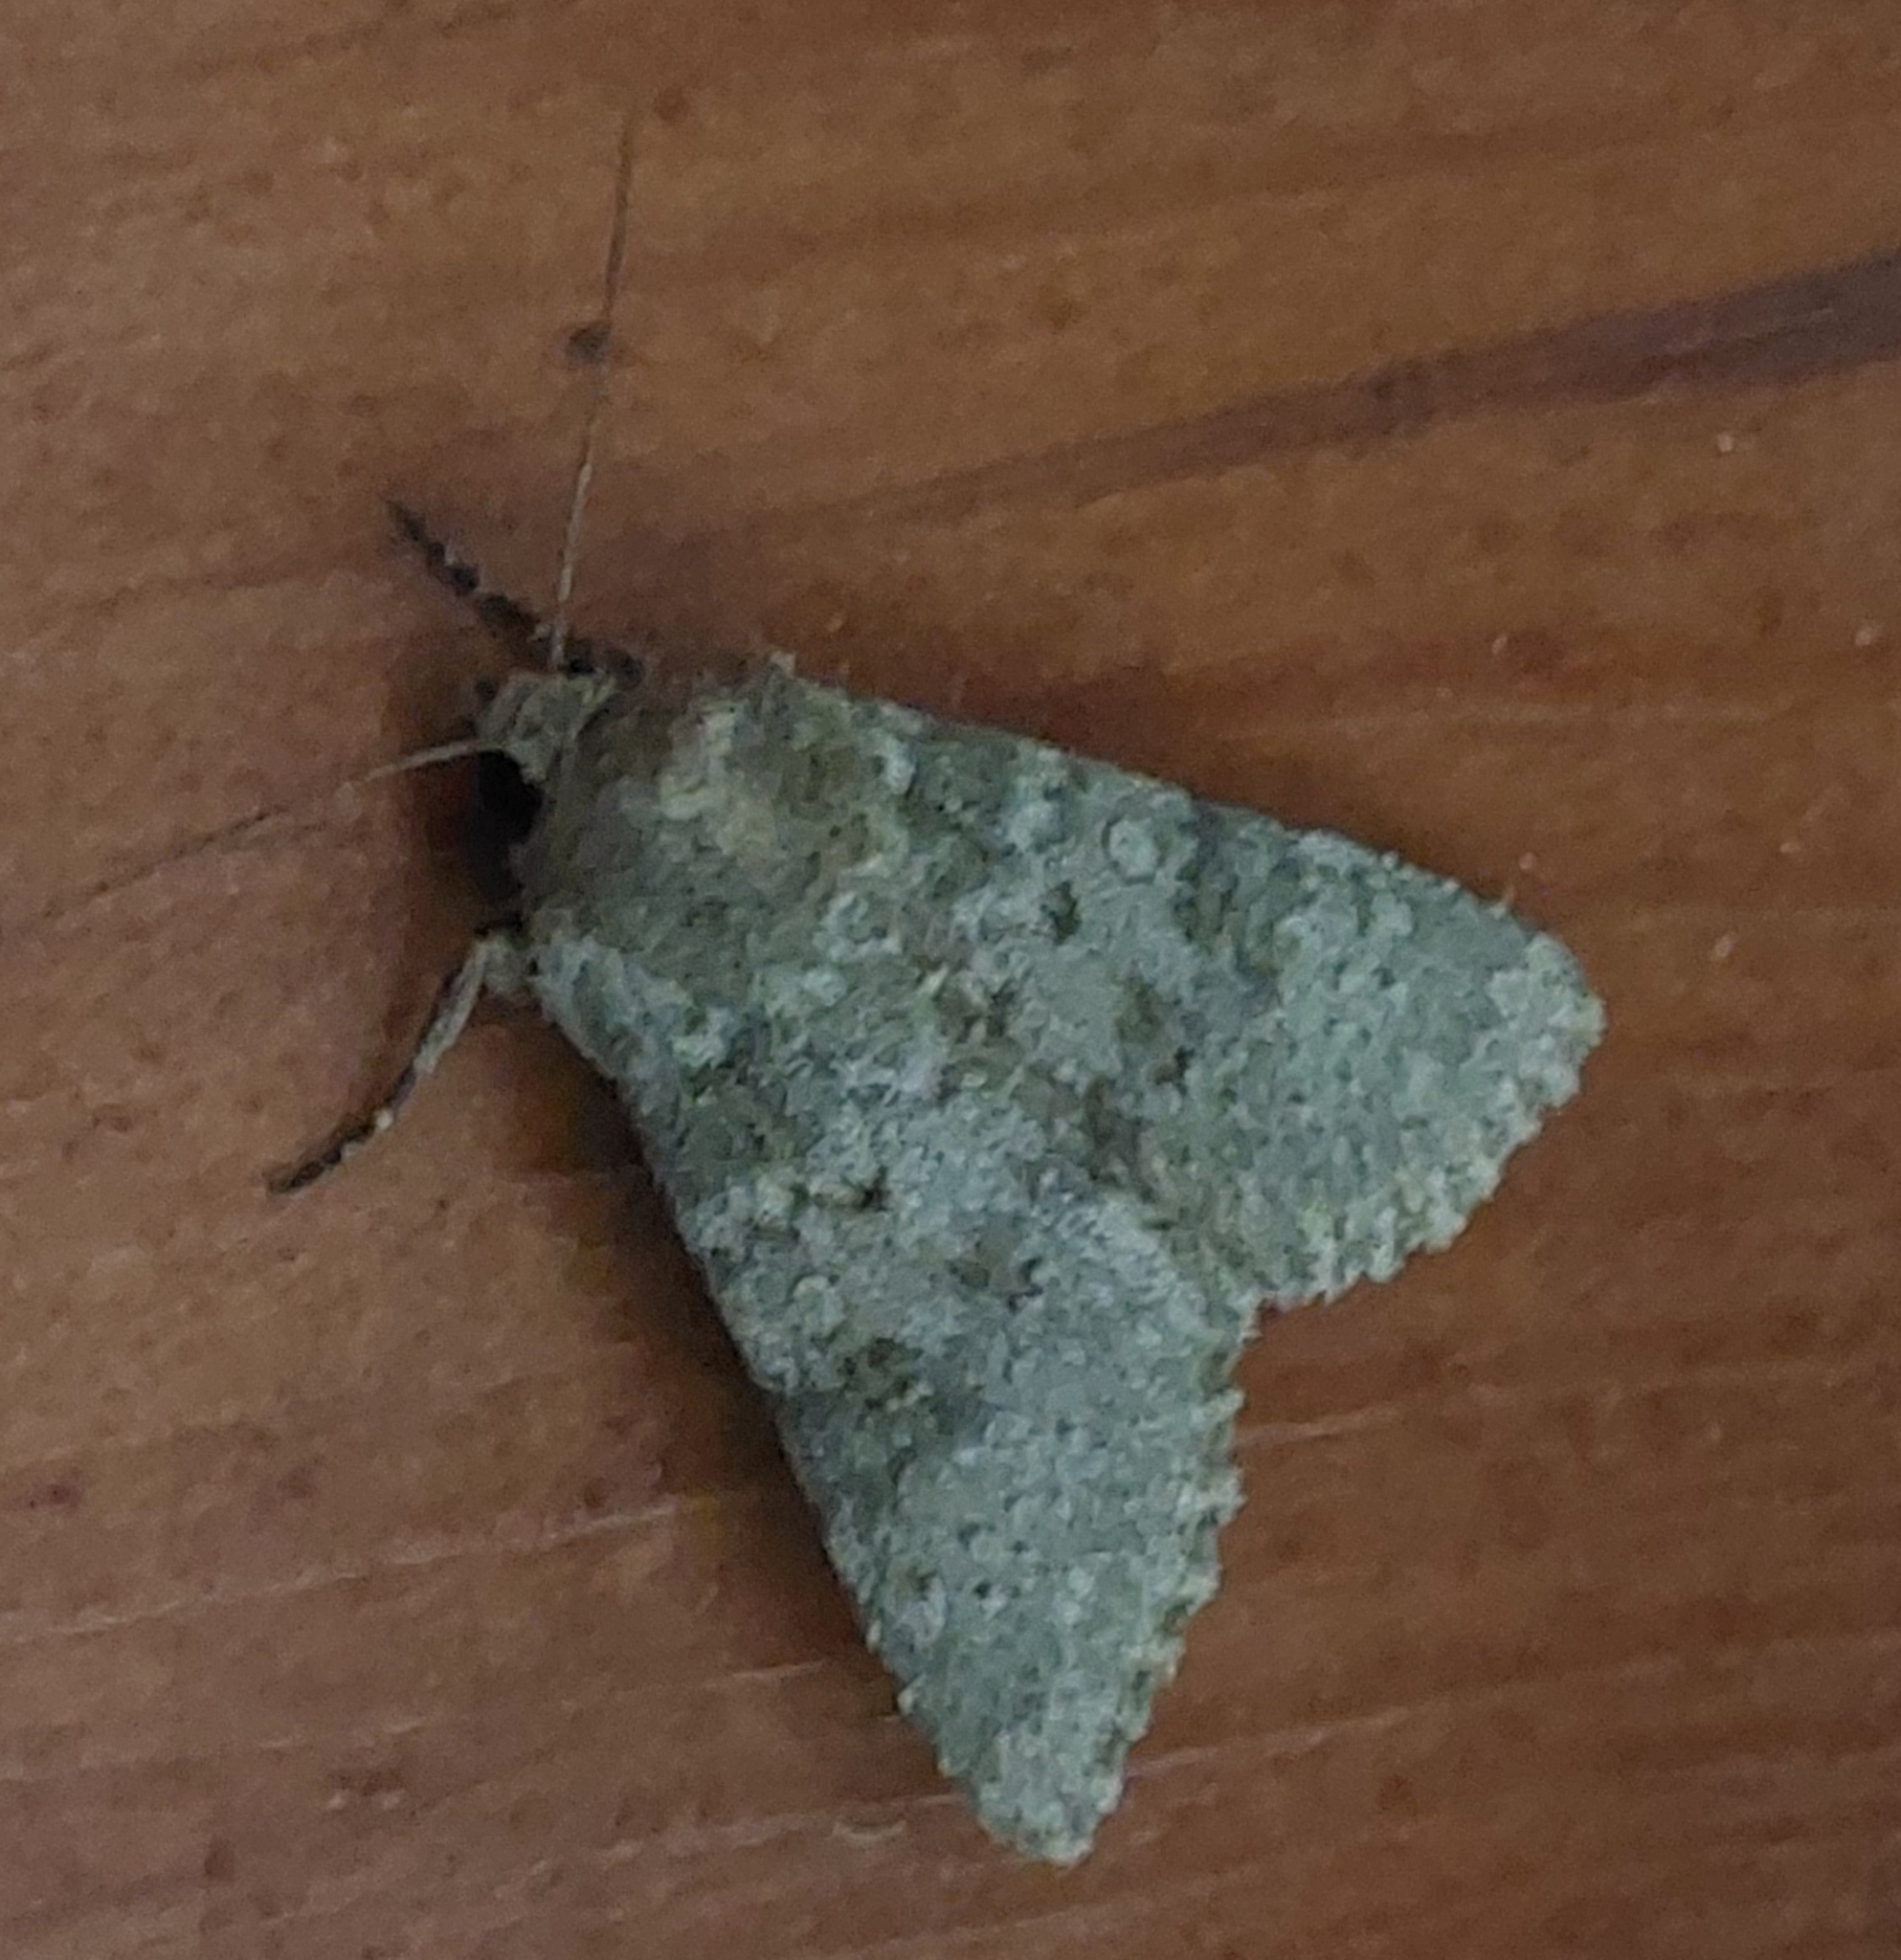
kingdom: Animalia
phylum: Arthropoda
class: Insecta
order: Lepidoptera
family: Noctuidae
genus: Polymixis
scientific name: Polymixis culoti
